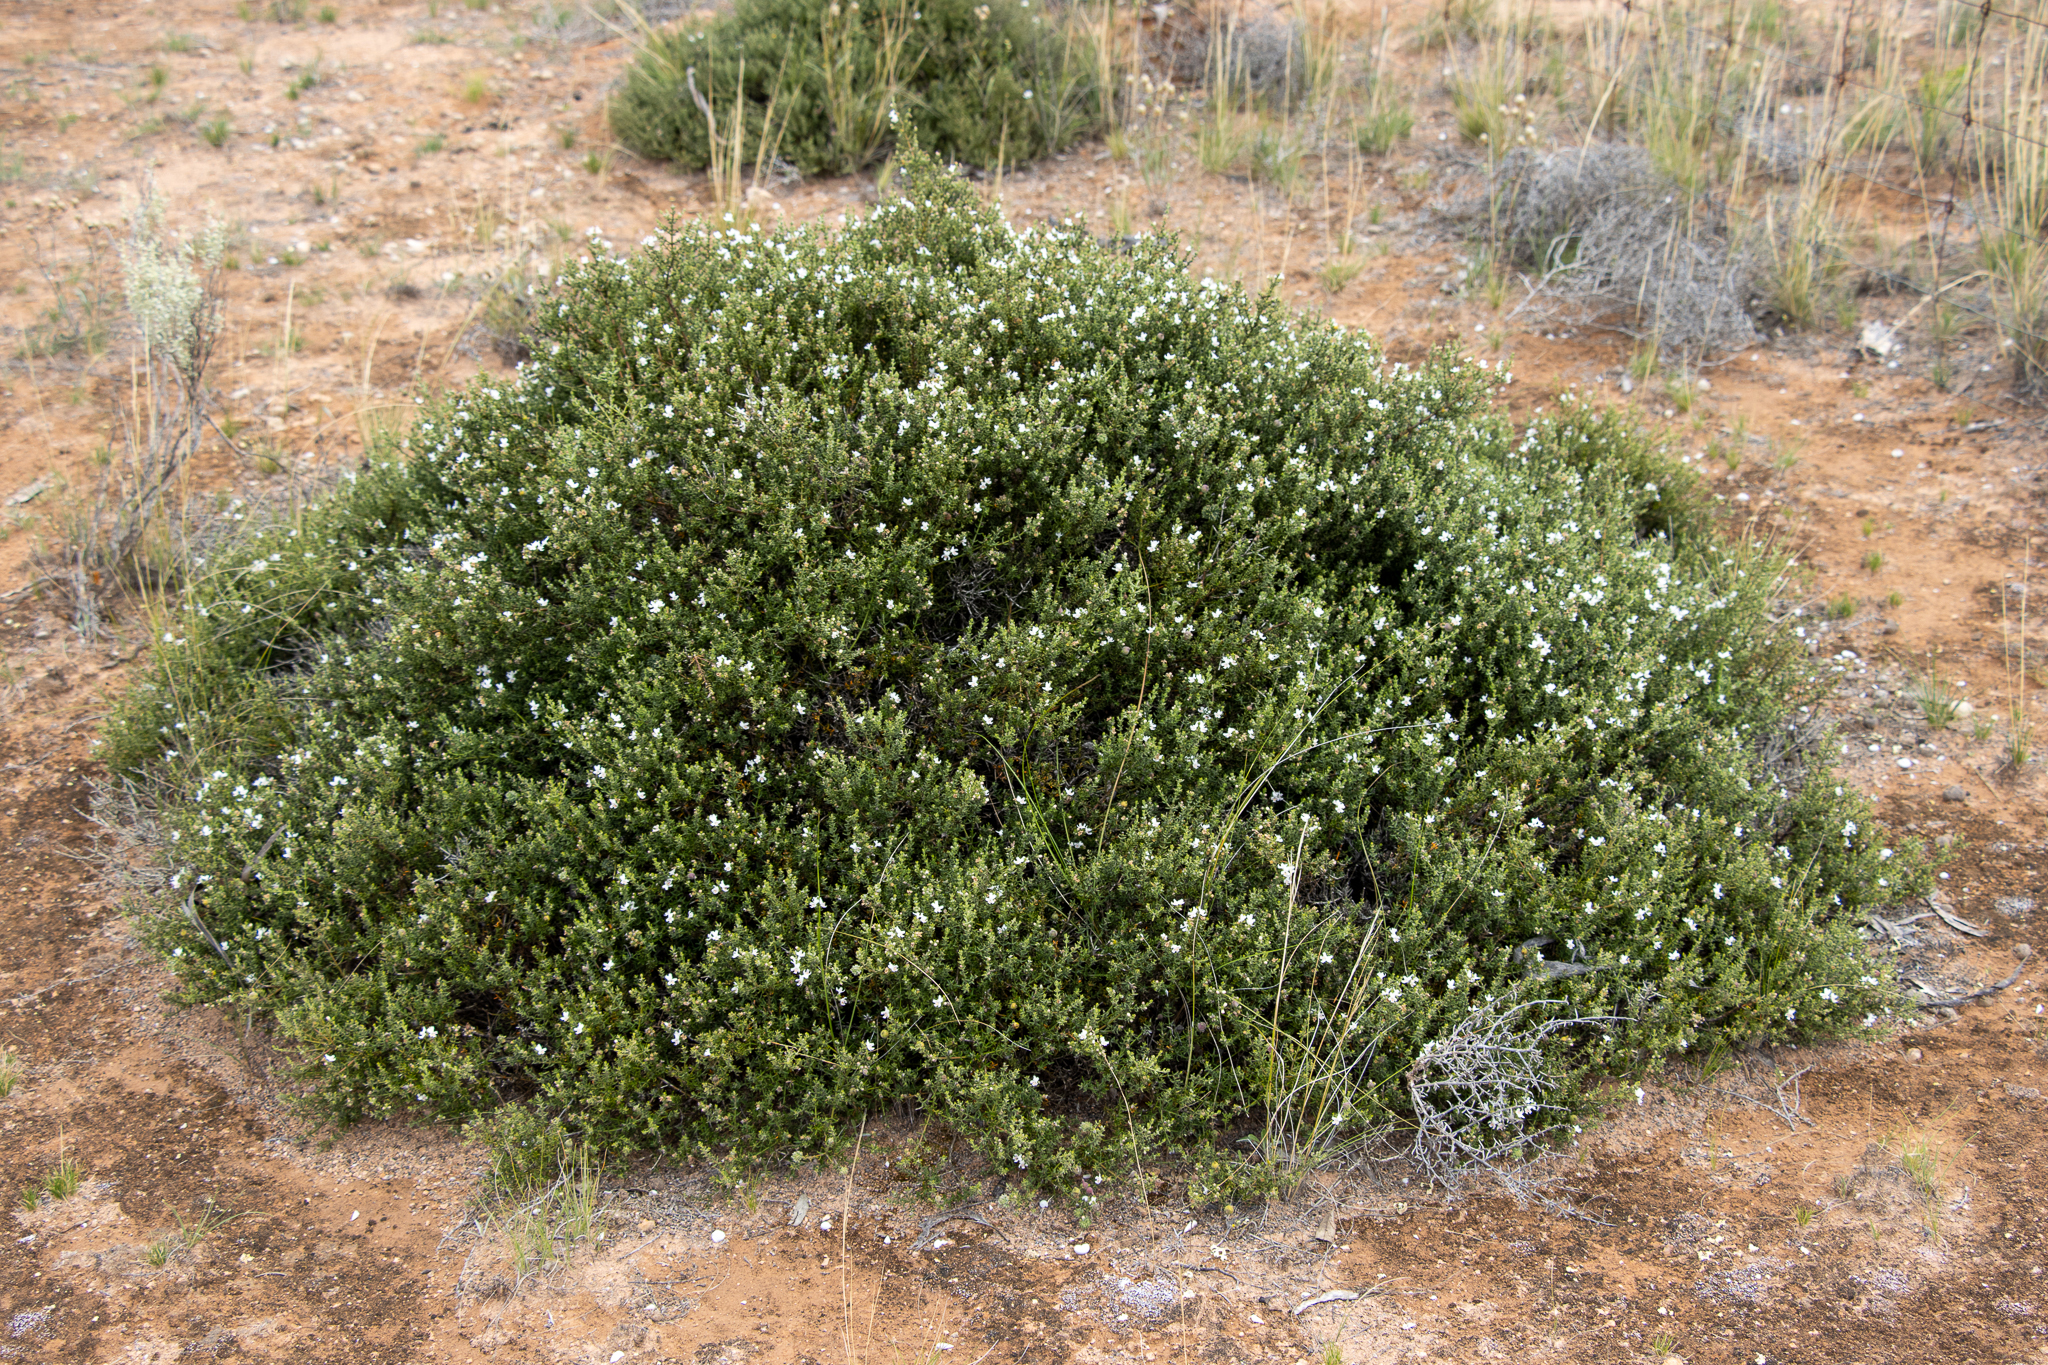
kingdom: Plantae
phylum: Tracheophyta
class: Magnoliopsida
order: Lamiales
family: Lamiaceae
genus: Westringia
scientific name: Westringia rigida
